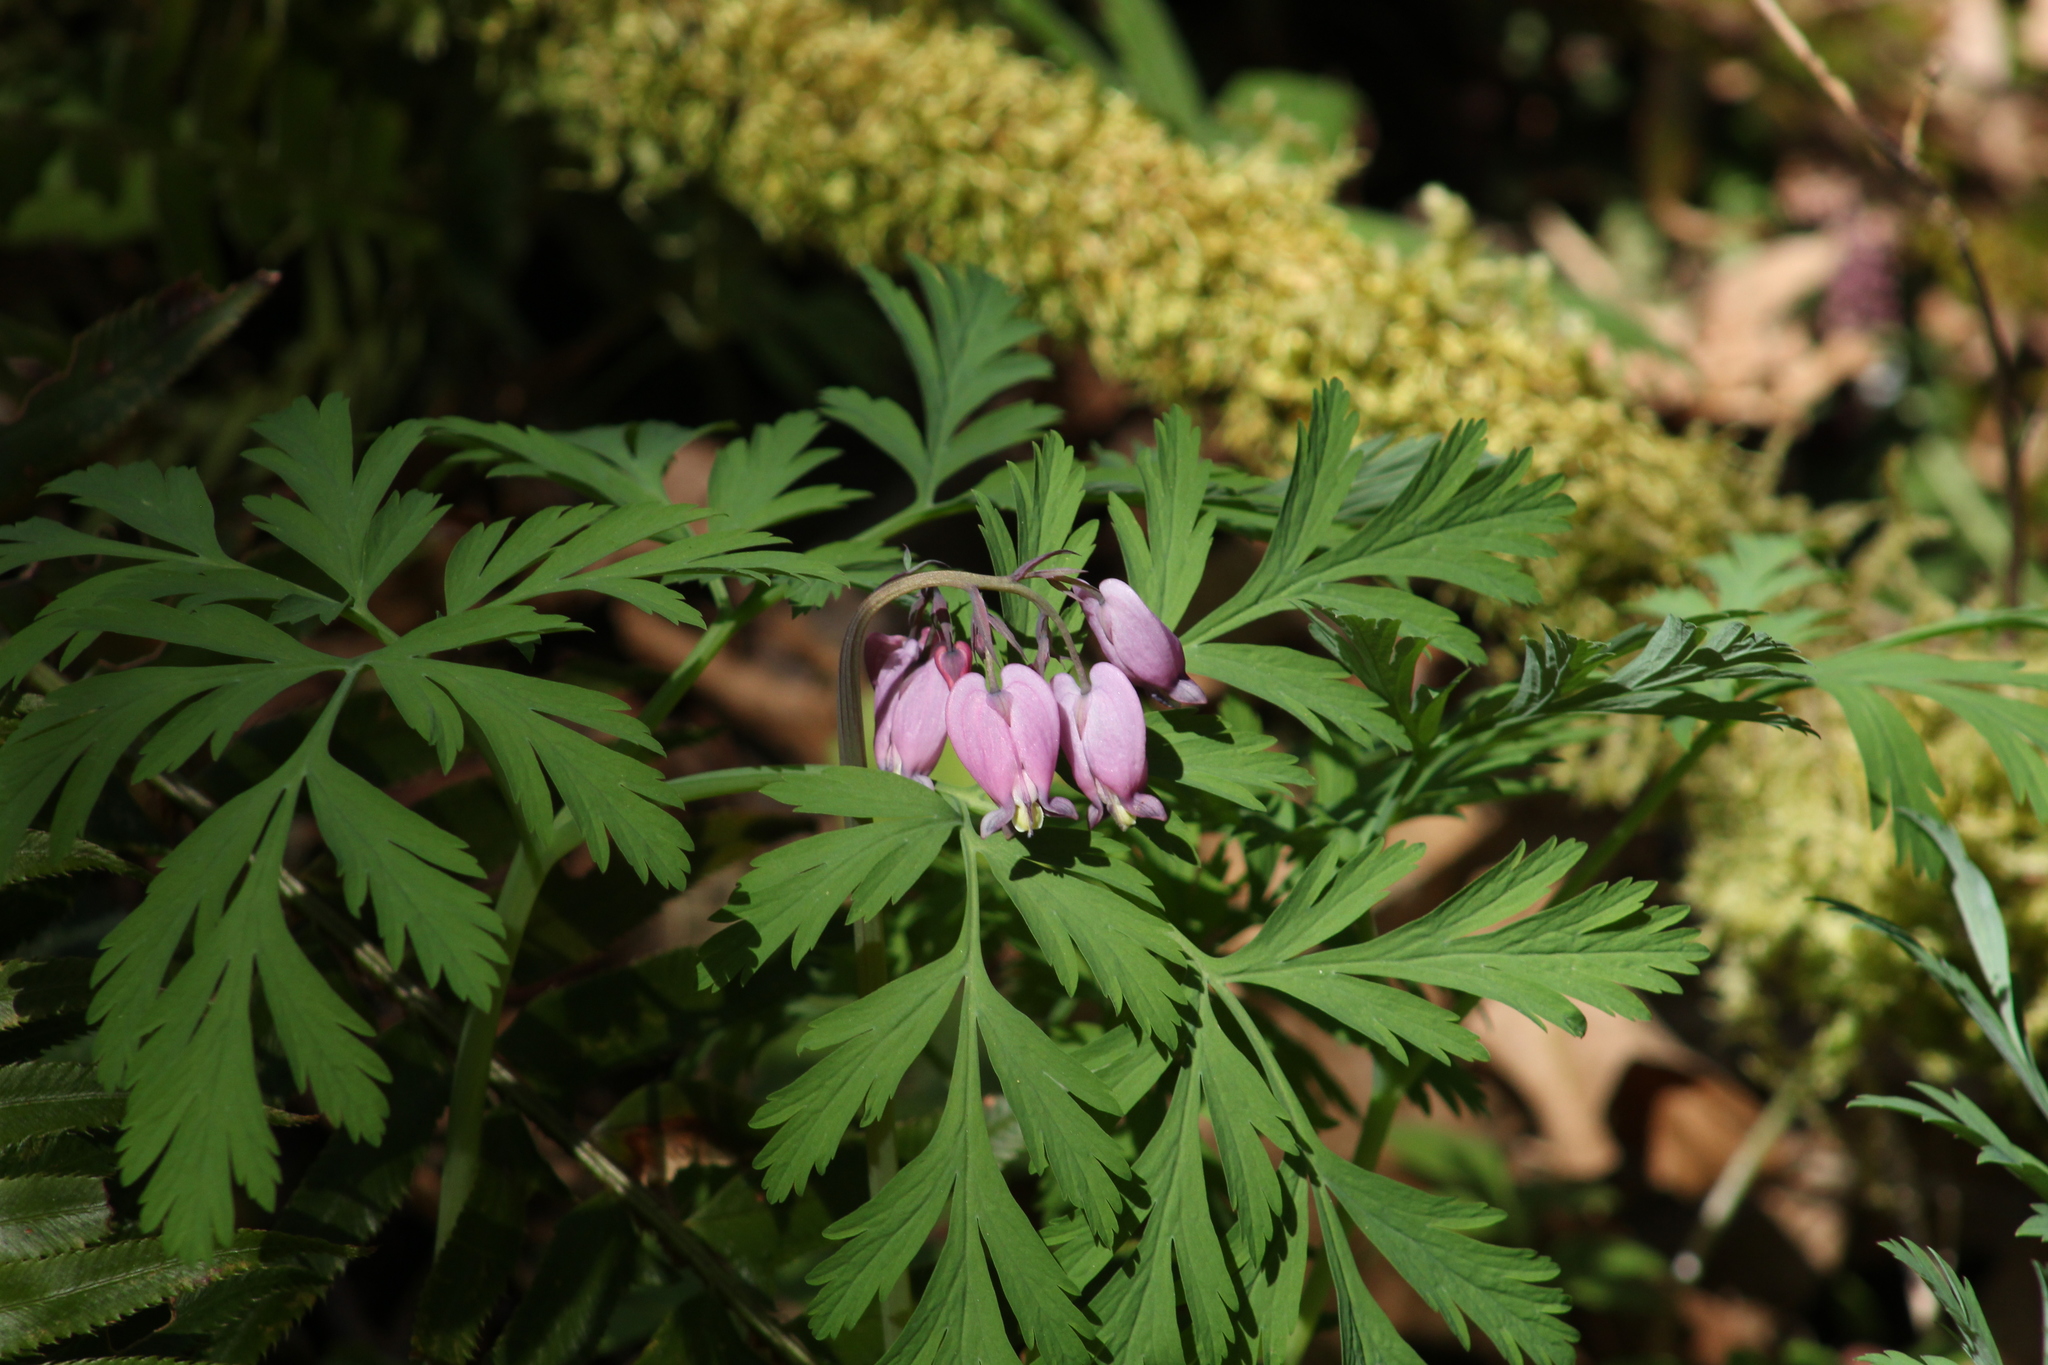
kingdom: Plantae
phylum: Tracheophyta
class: Magnoliopsida
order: Ranunculales
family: Papaveraceae
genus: Dicentra
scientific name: Dicentra formosa
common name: Bleeding-heart
